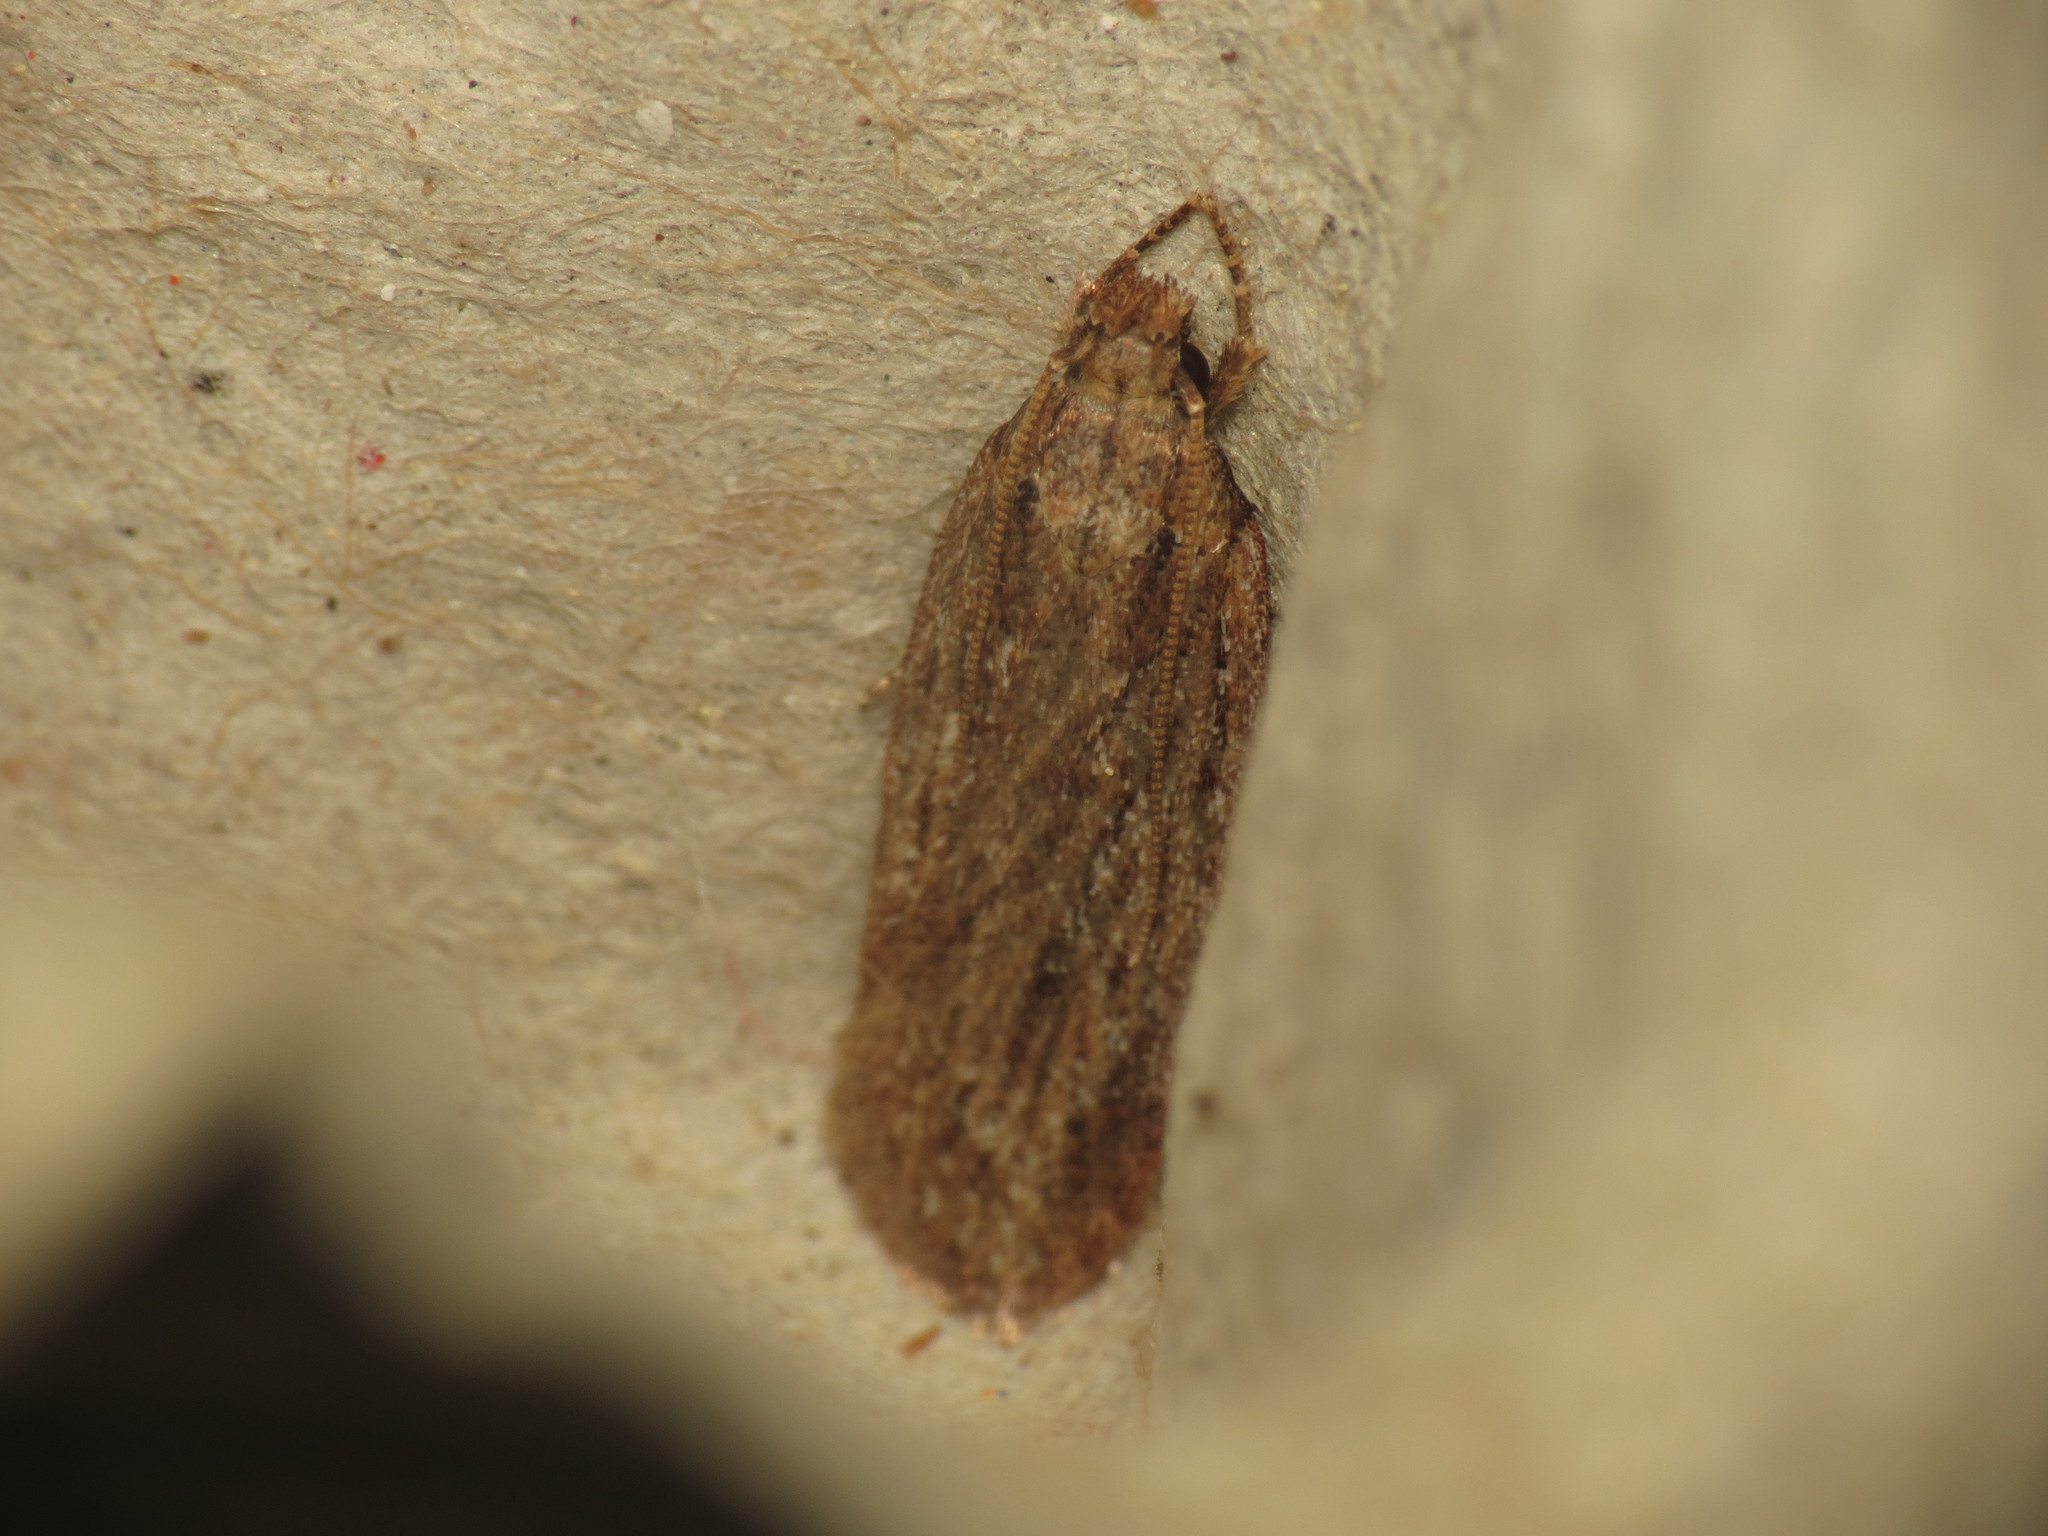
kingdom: Animalia
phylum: Arthropoda
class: Insecta
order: Lepidoptera
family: Depressariidae
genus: Depressaria
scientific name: Depressaria apiella
